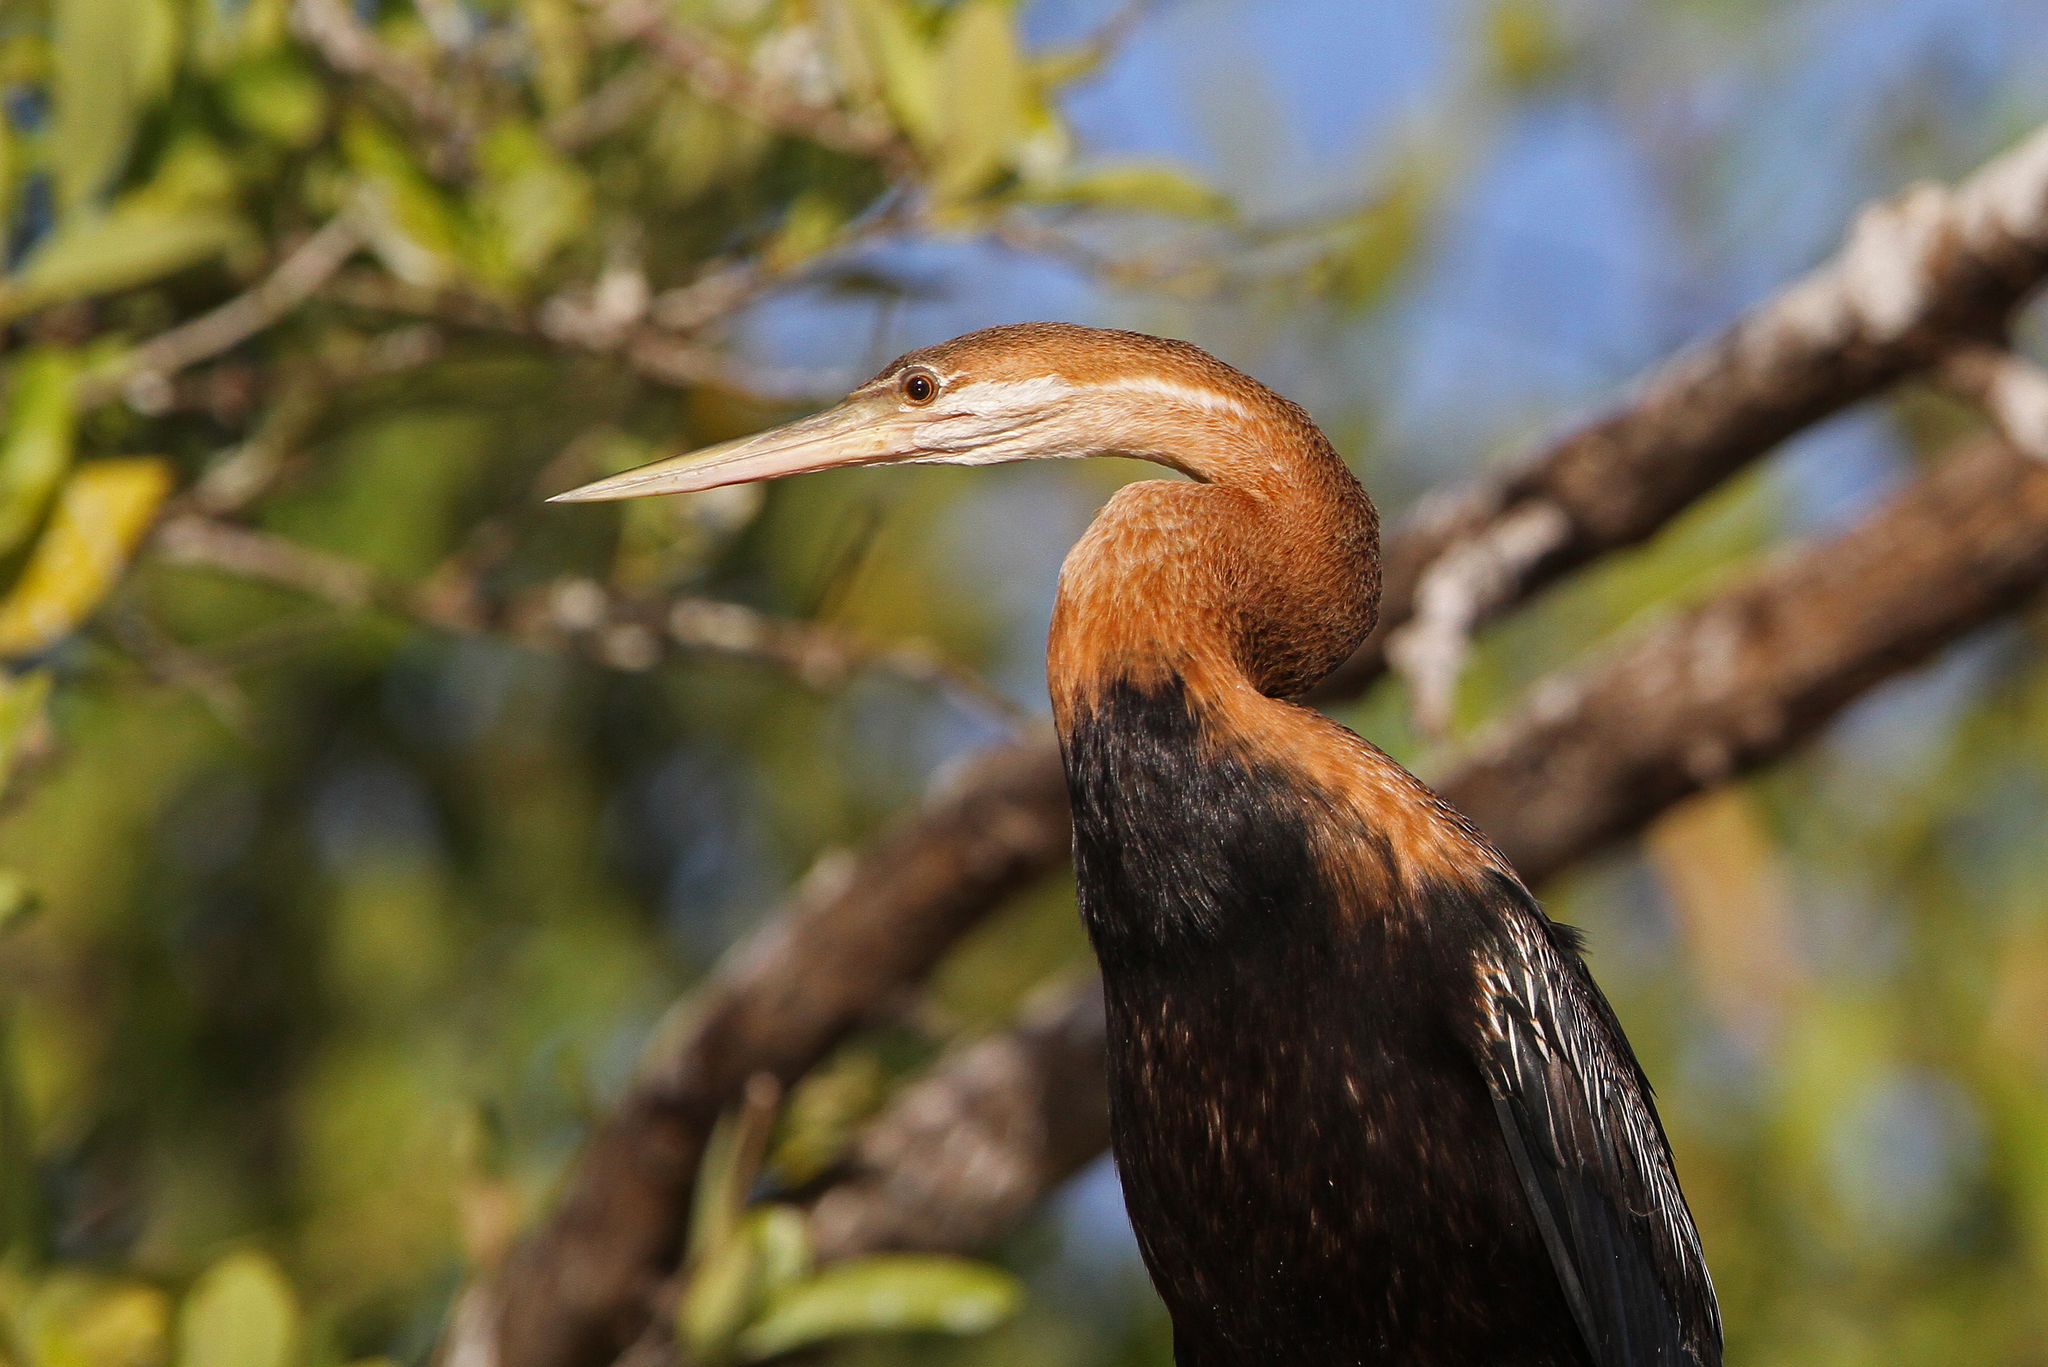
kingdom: Animalia
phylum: Chordata
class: Aves
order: Suliformes
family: Anhingidae
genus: Anhinga
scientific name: Anhinga rufa
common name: African darter
